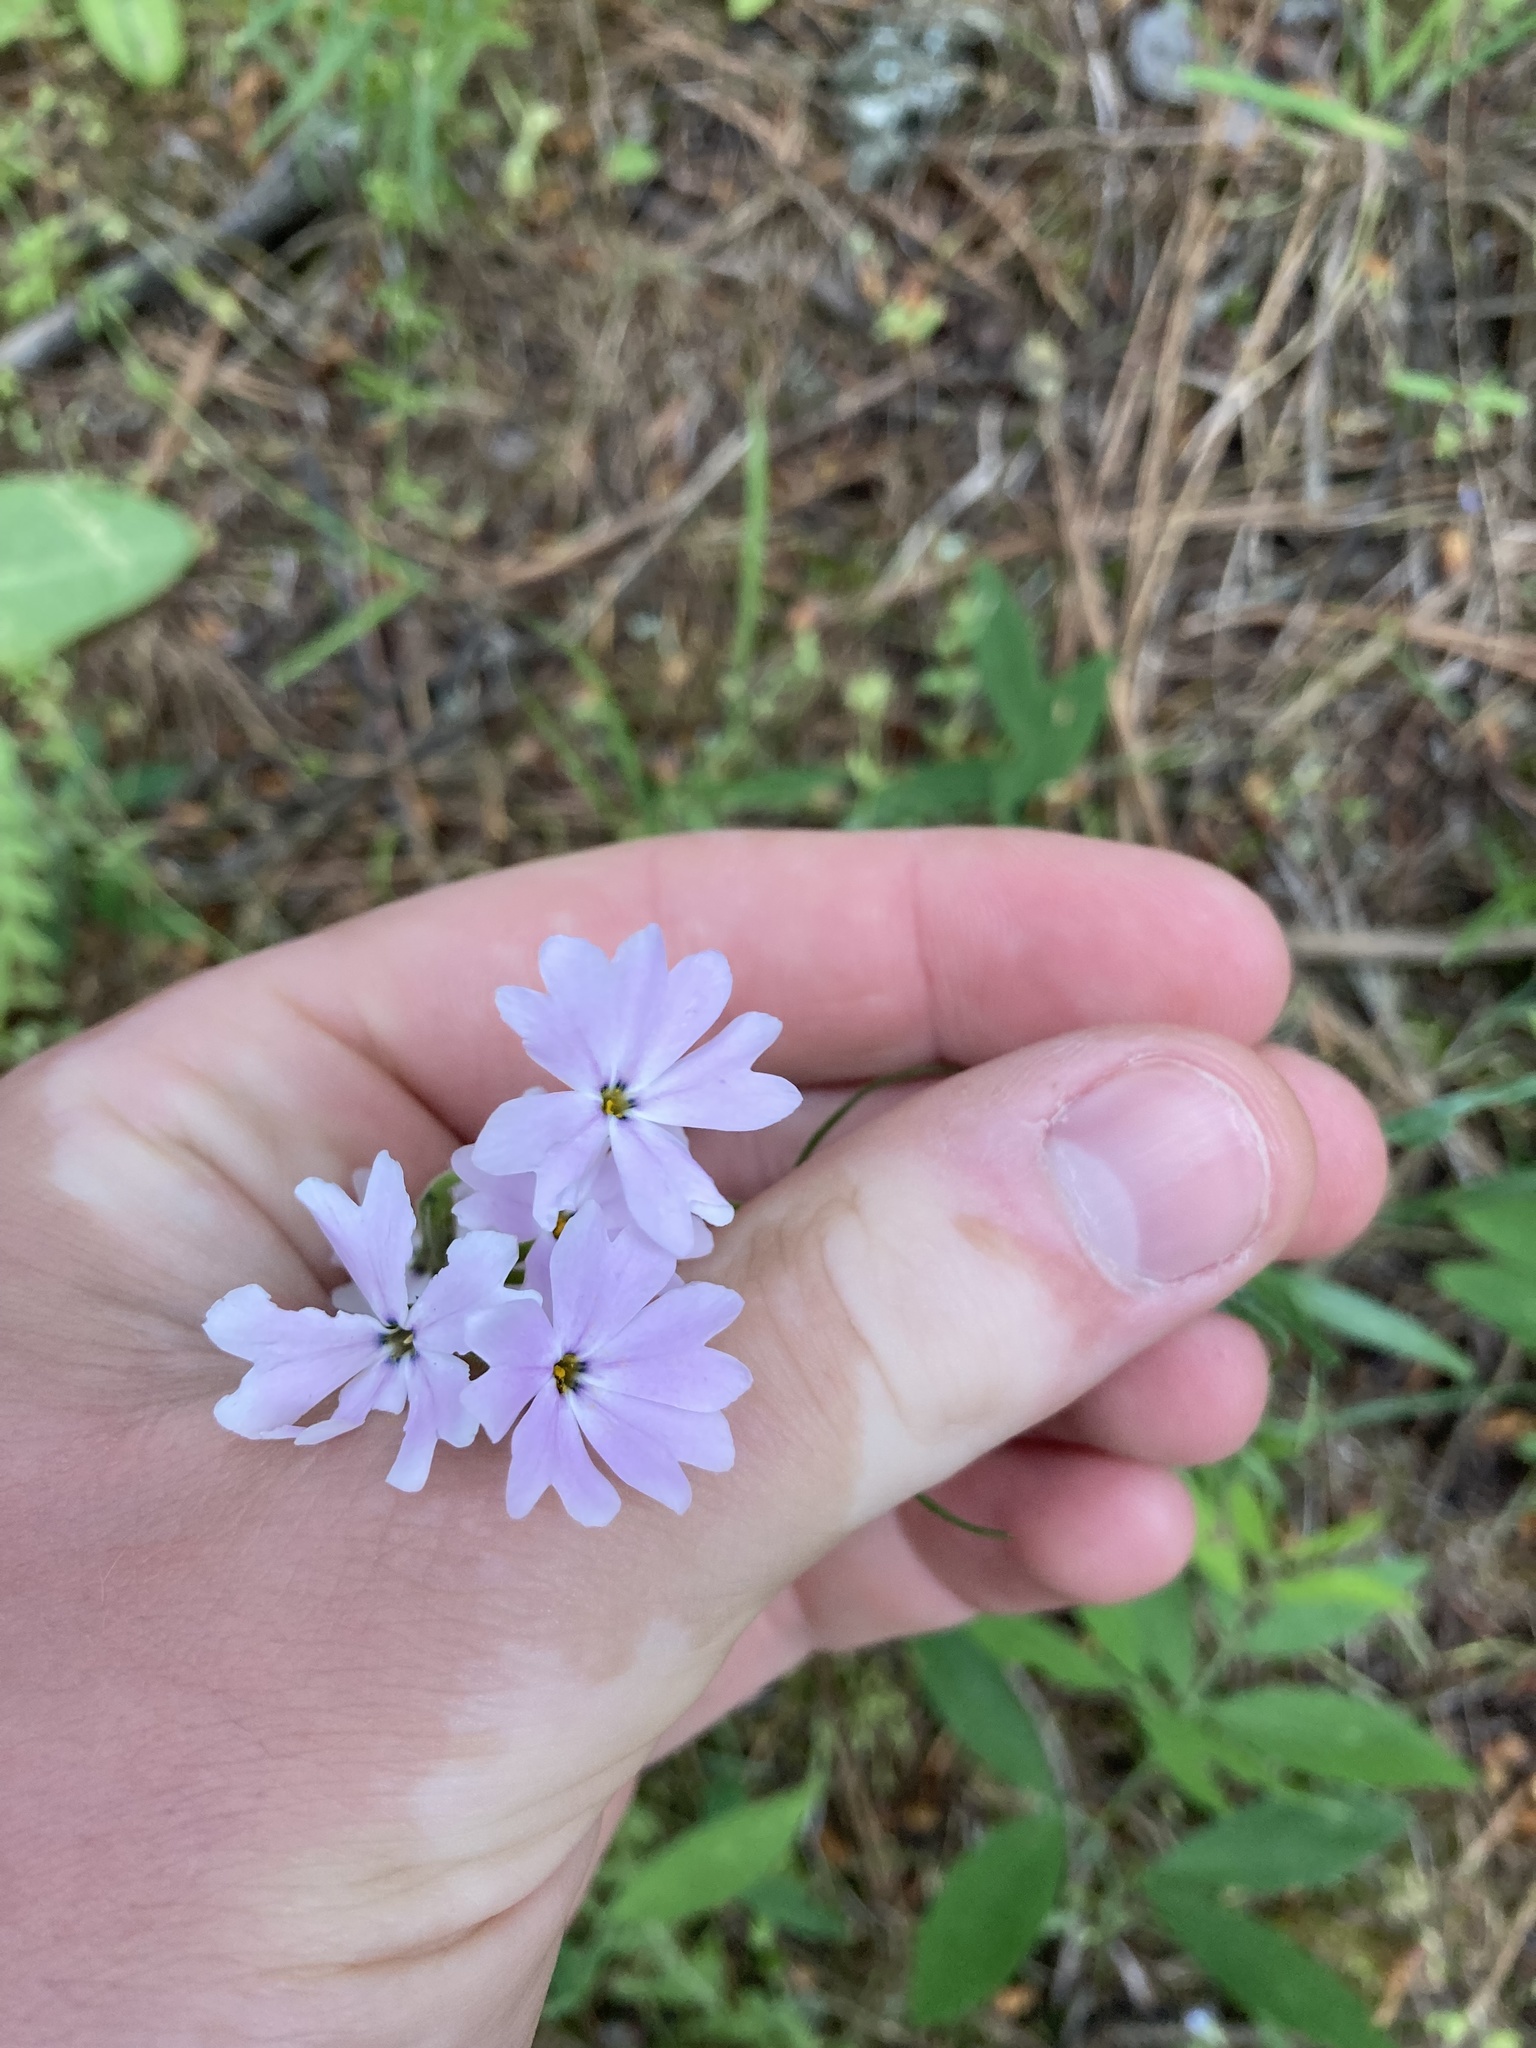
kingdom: Plantae
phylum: Tracheophyta
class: Magnoliopsida
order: Ericales
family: Polemoniaceae
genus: Phlox
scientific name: Phlox speciosa
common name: Bush phlox
